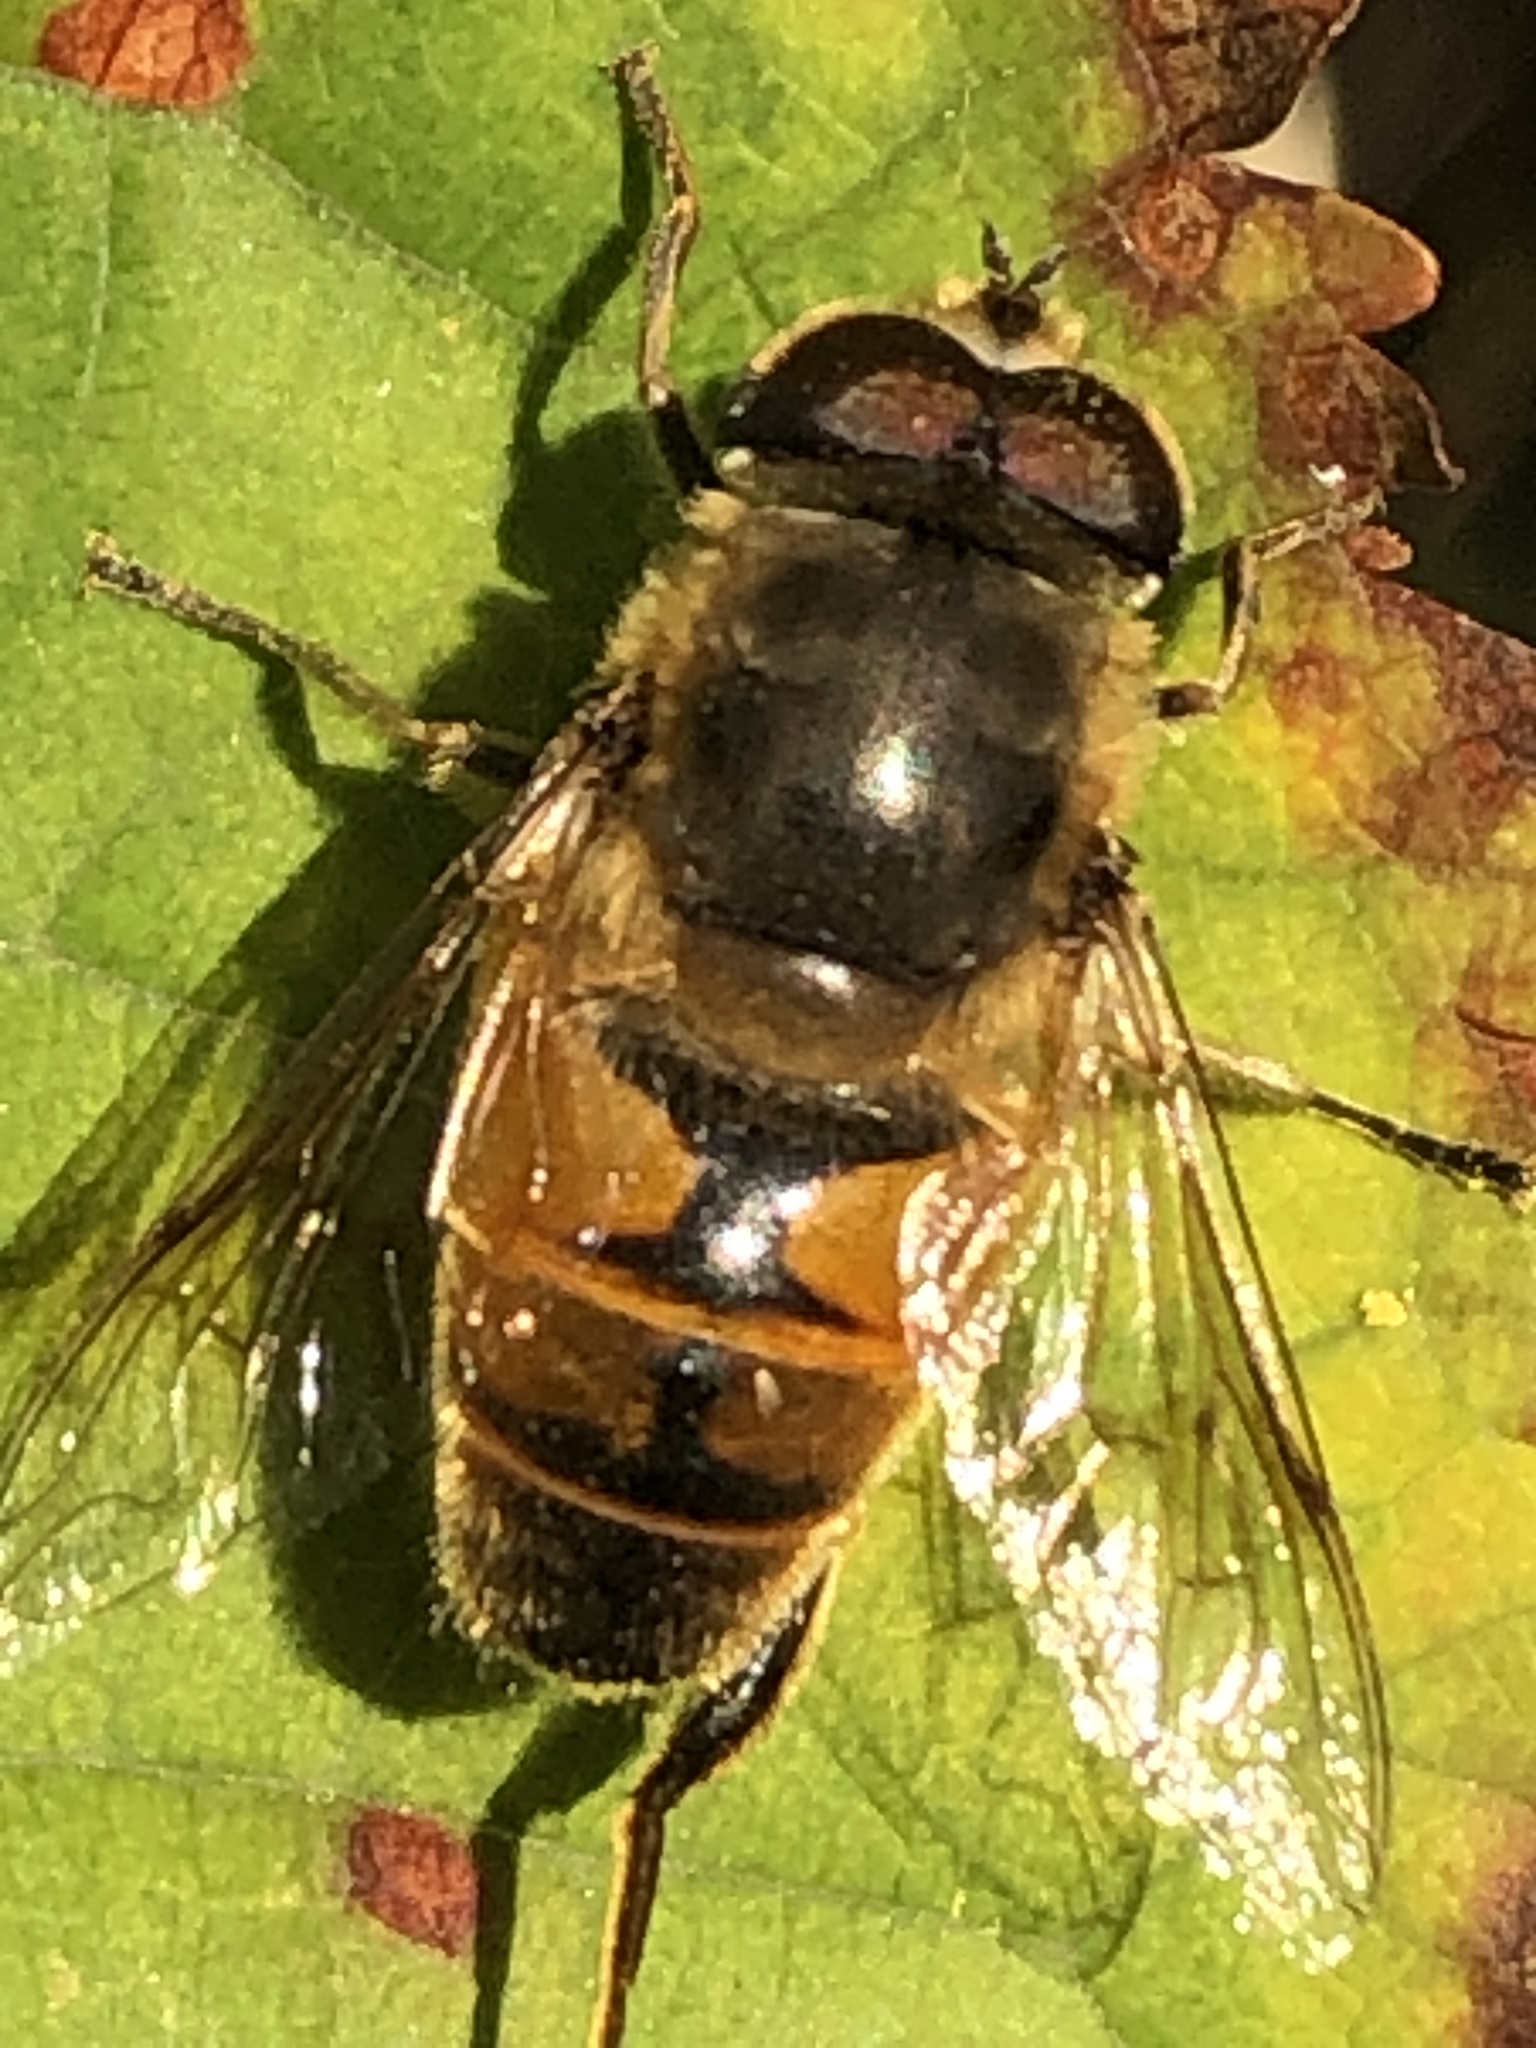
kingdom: Animalia
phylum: Arthropoda
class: Insecta
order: Diptera
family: Syrphidae
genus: Eristalis
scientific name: Eristalis tenax
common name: Drone fly
